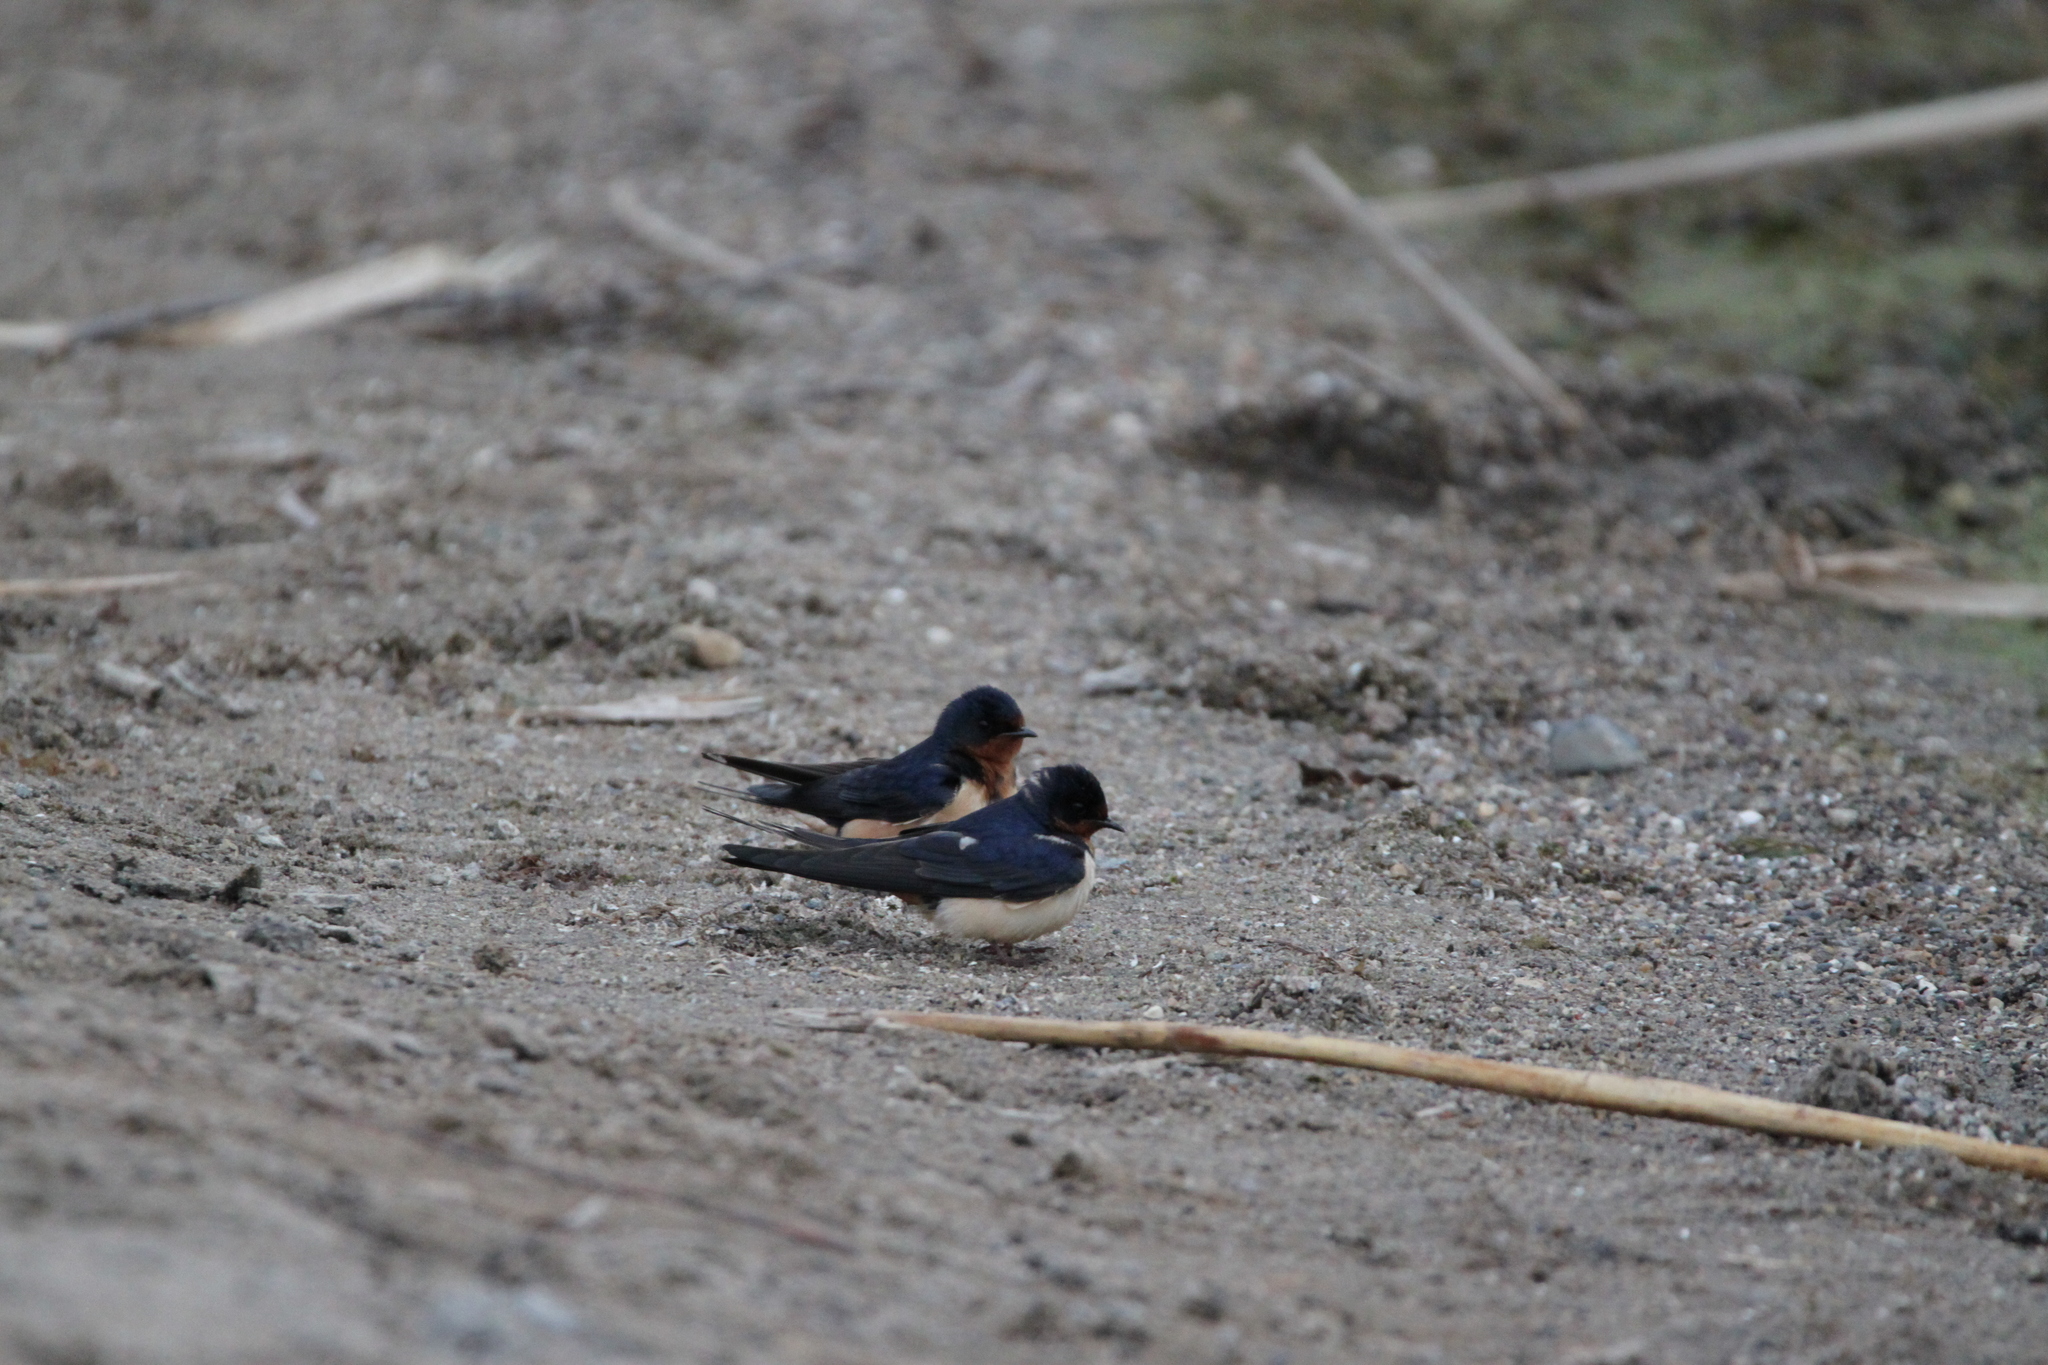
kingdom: Animalia
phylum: Chordata
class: Aves
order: Passeriformes
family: Hirundinidae
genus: Hirundo
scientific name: Hirundo rustica
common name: Barn swallow
